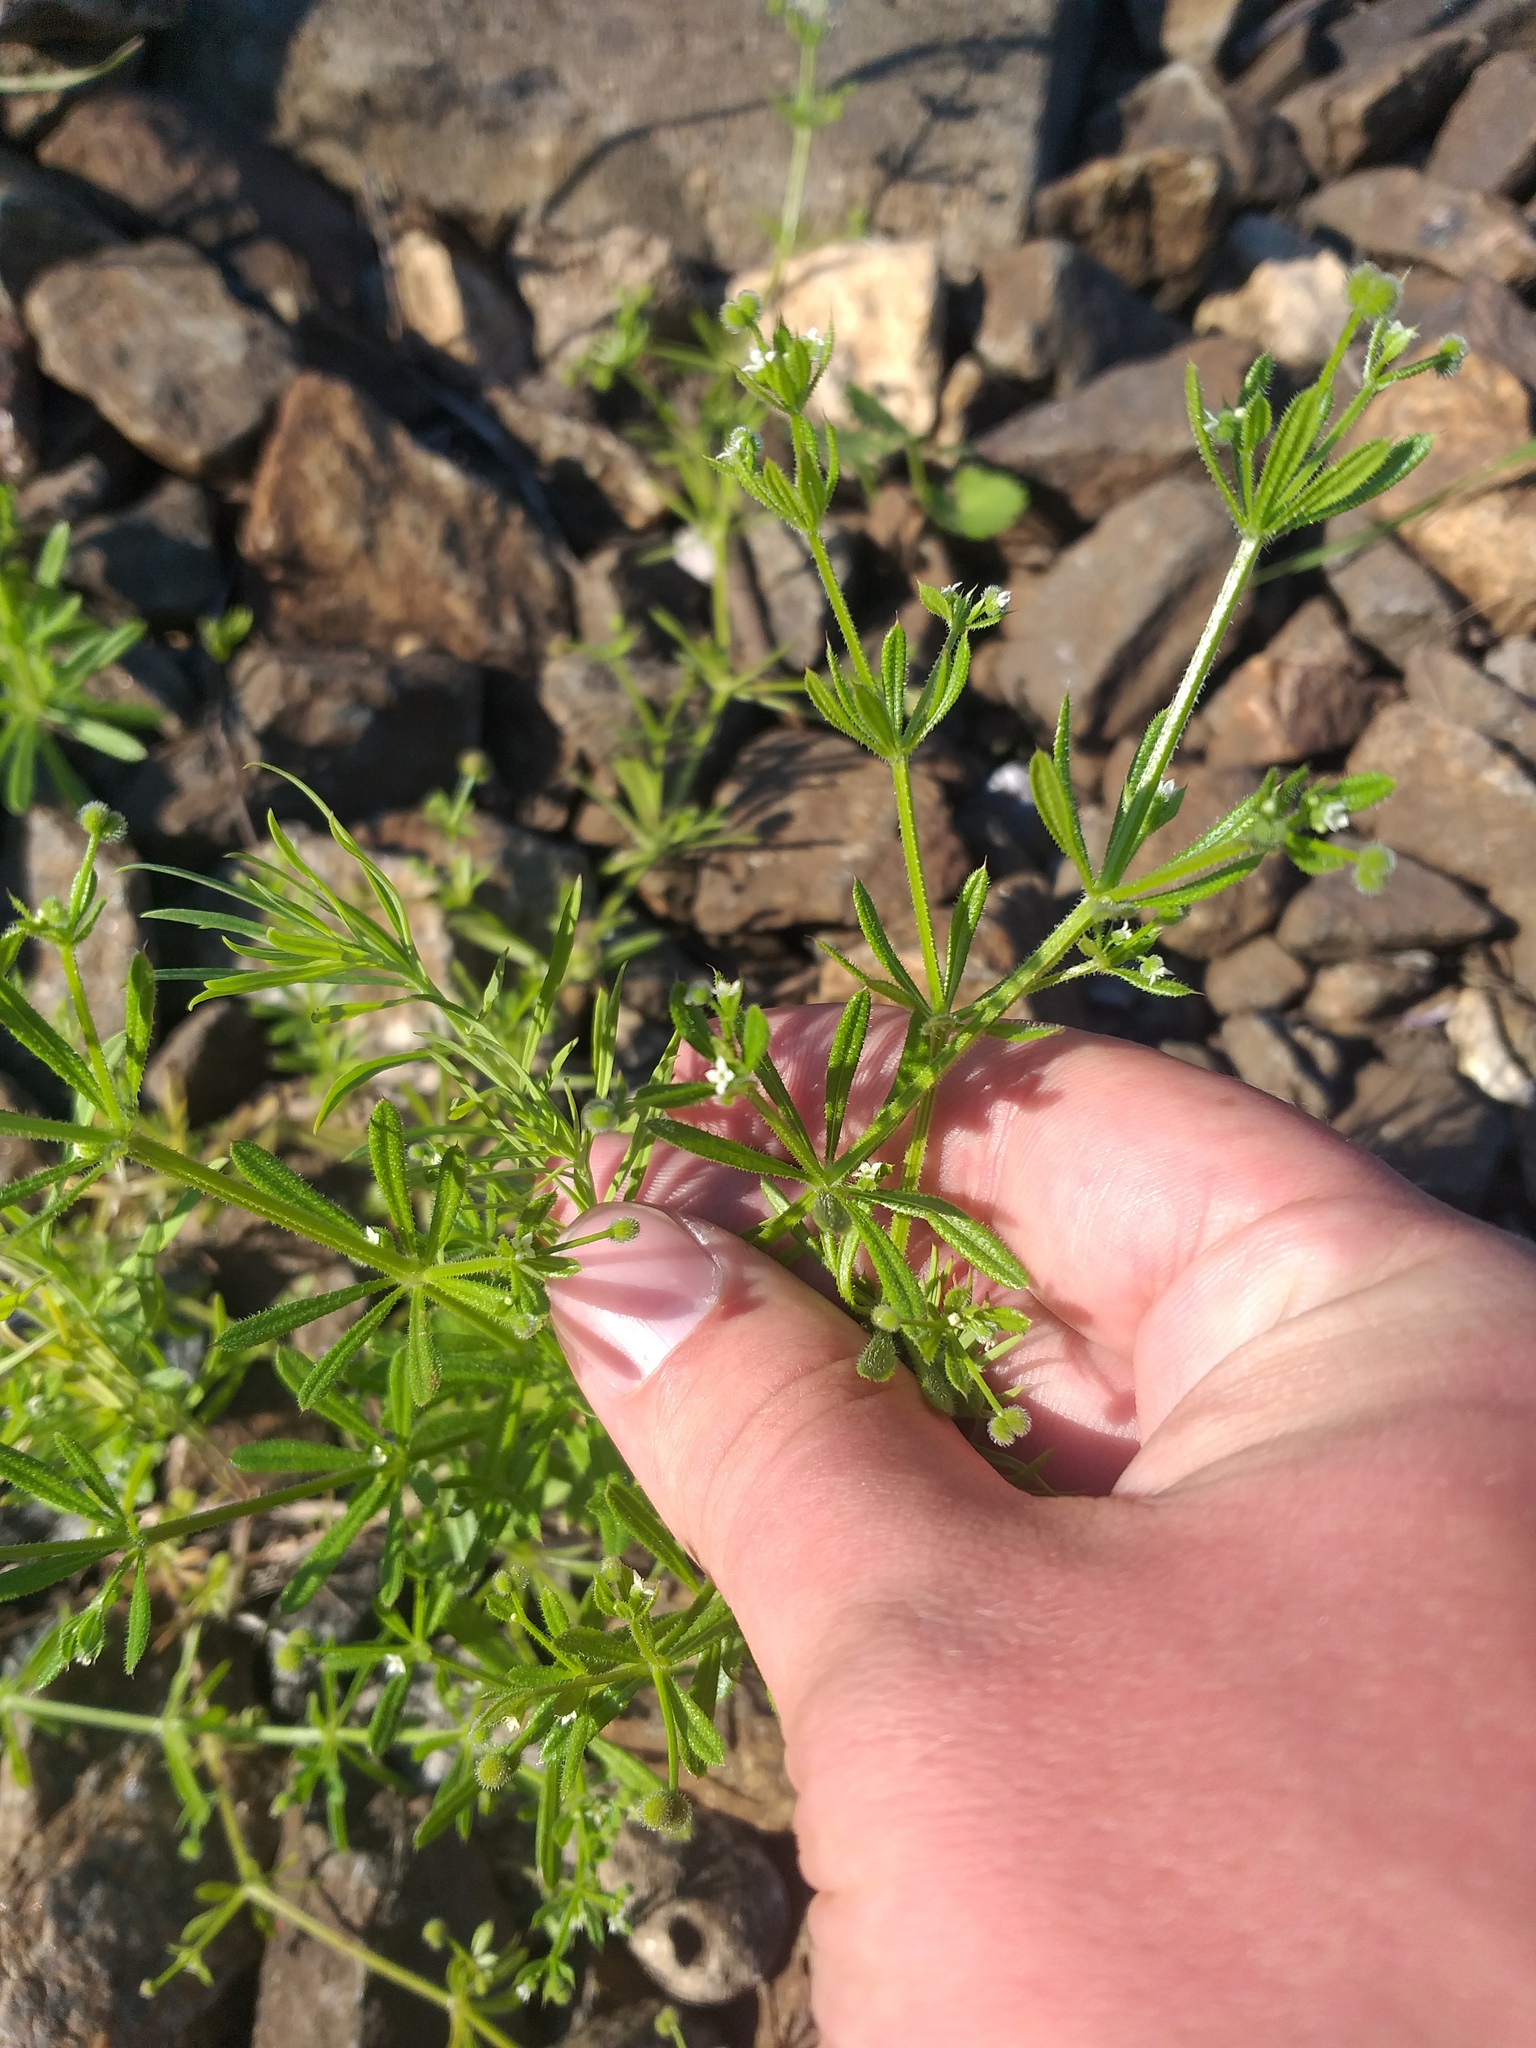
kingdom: Plantae
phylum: Tracheophyta
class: Magnoliopsida
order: Gentianales
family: Rubiaceae
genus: Galium
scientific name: Galium aparine
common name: Cleavers
